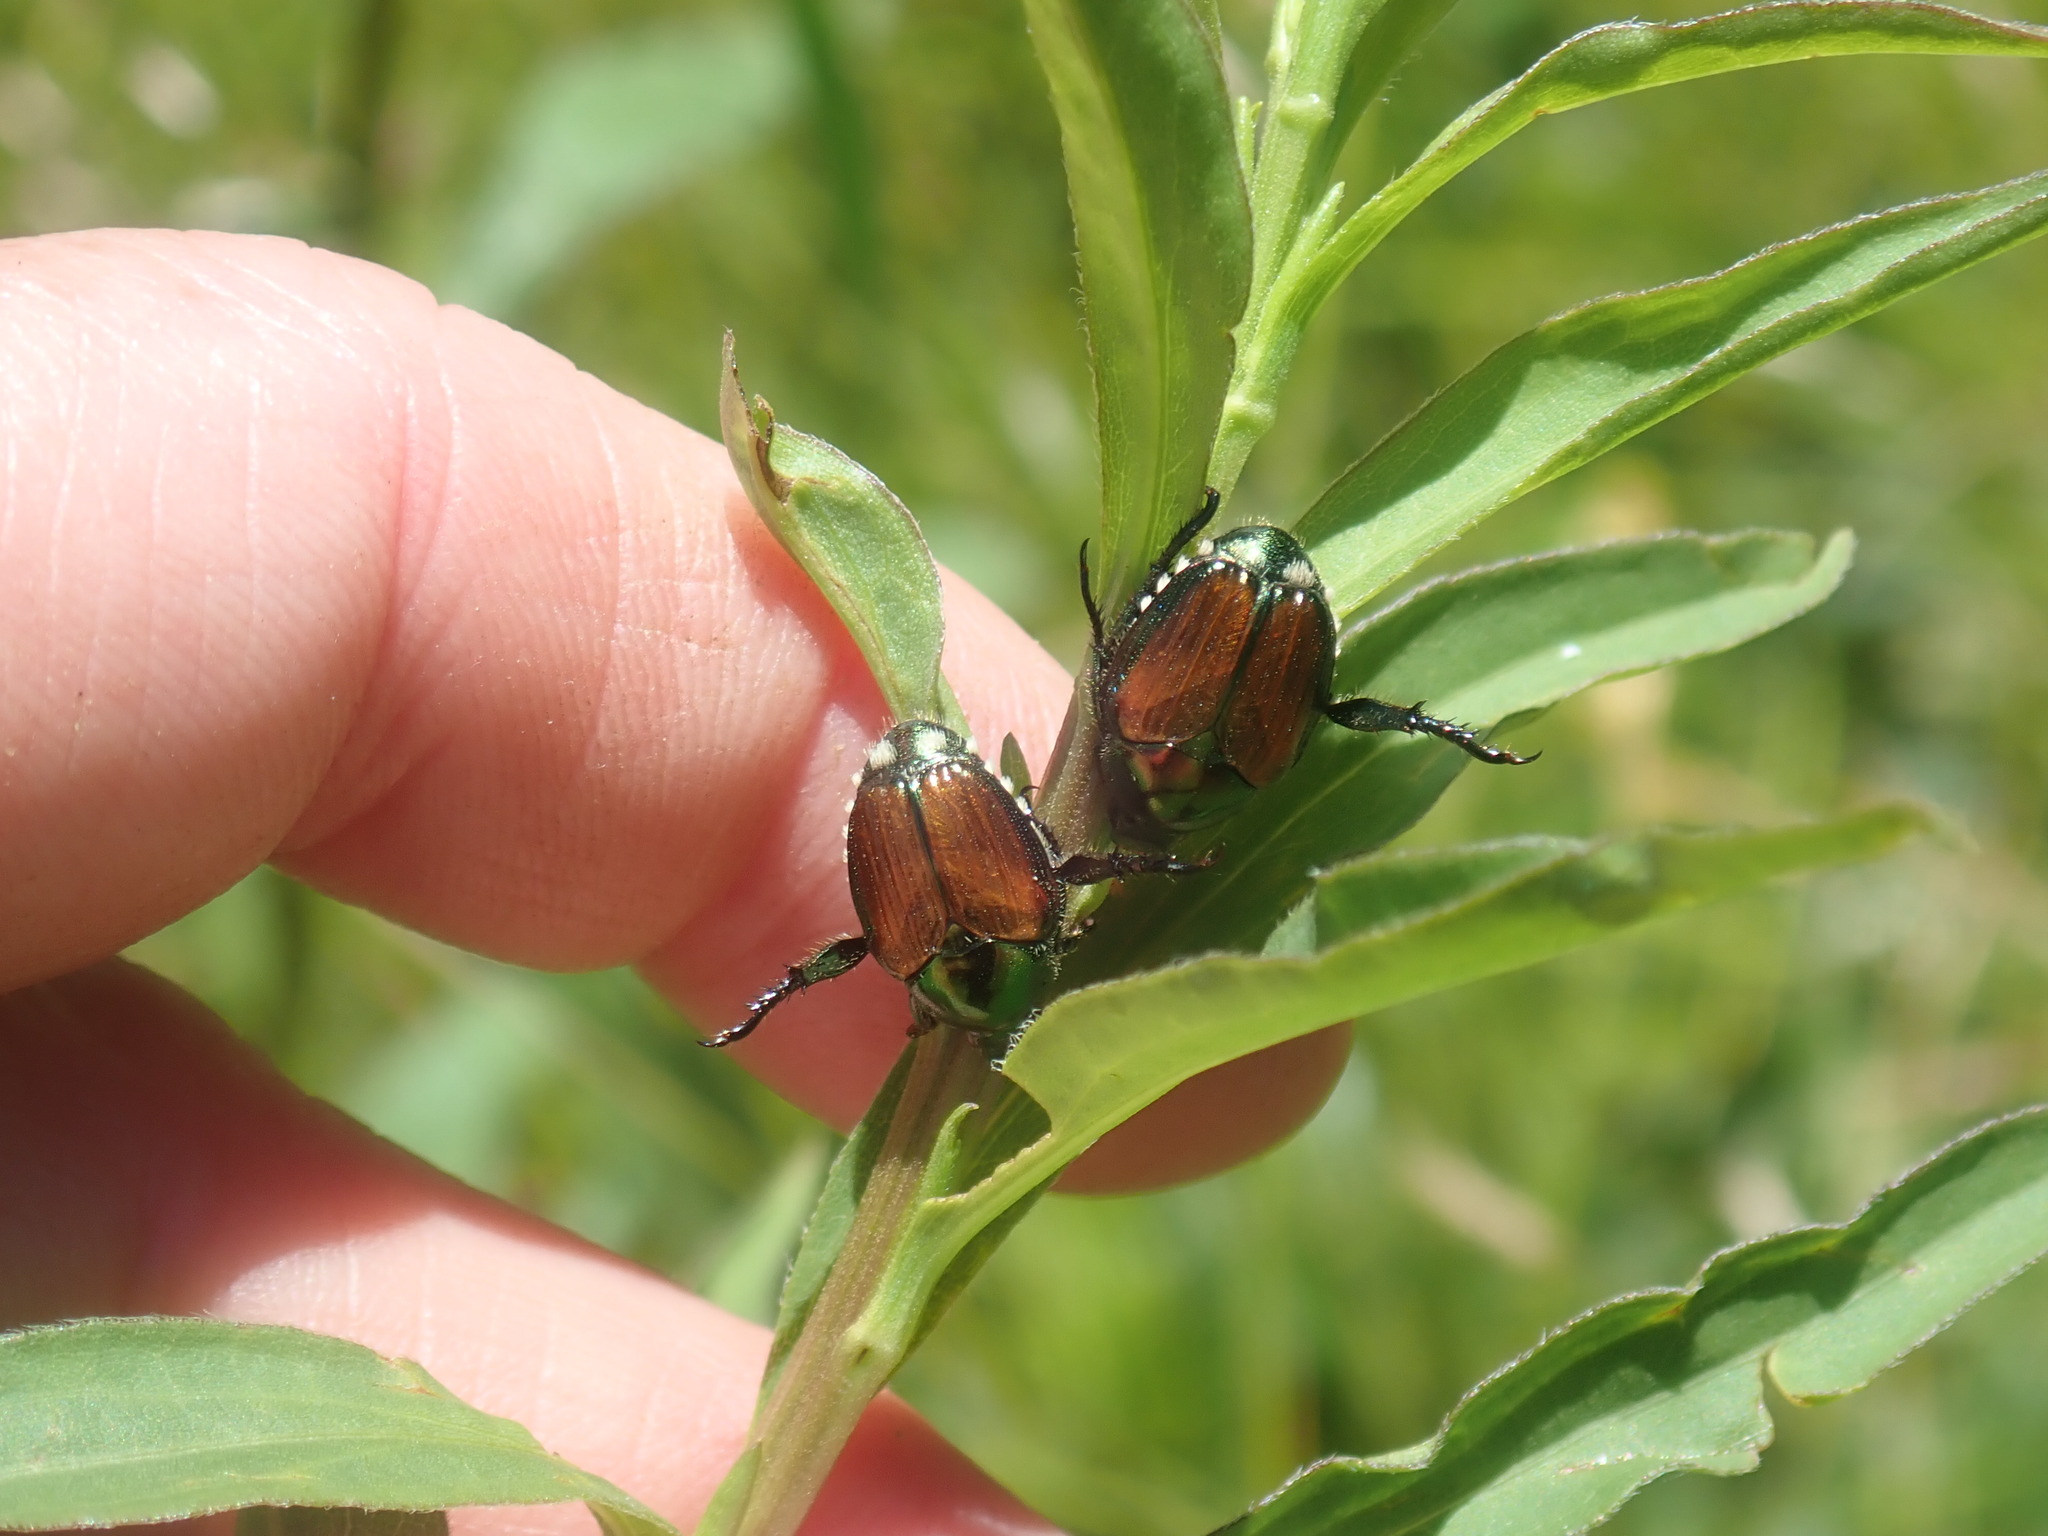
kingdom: Animalia
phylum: Arthropoda
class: Insecta
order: Coleoptera
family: Scarabaeidae
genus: Popillia
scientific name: Popillia japonica
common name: Japanese beetle
